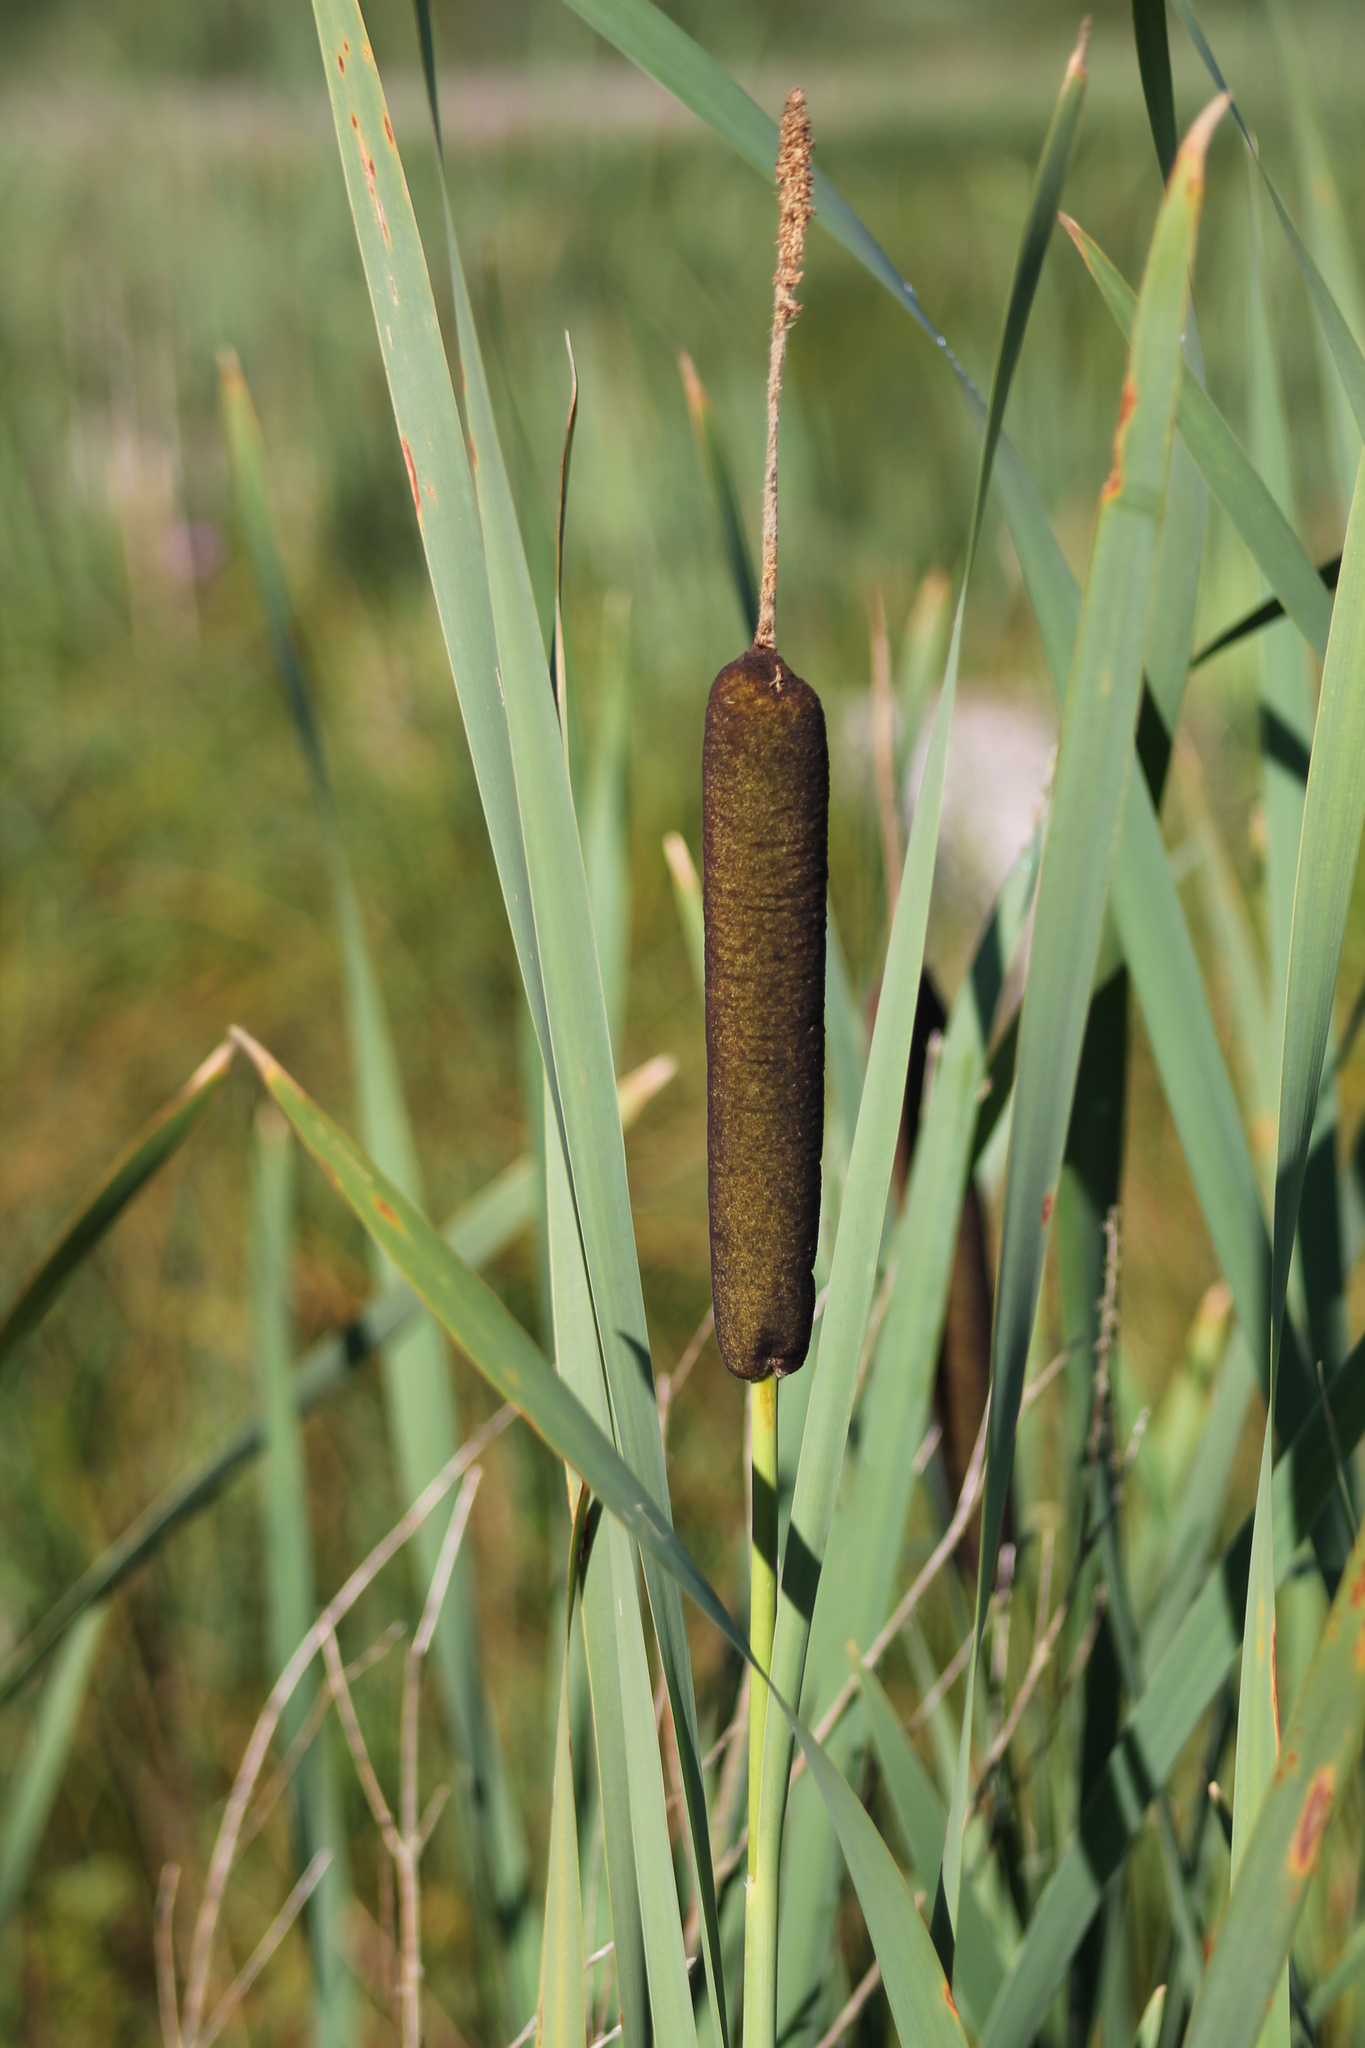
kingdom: Plantae
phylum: Tracheophyta
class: Liliopsida
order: Poales
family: Typhaceae
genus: Typha
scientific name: Typha latifolia
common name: Broadleaf cattail
